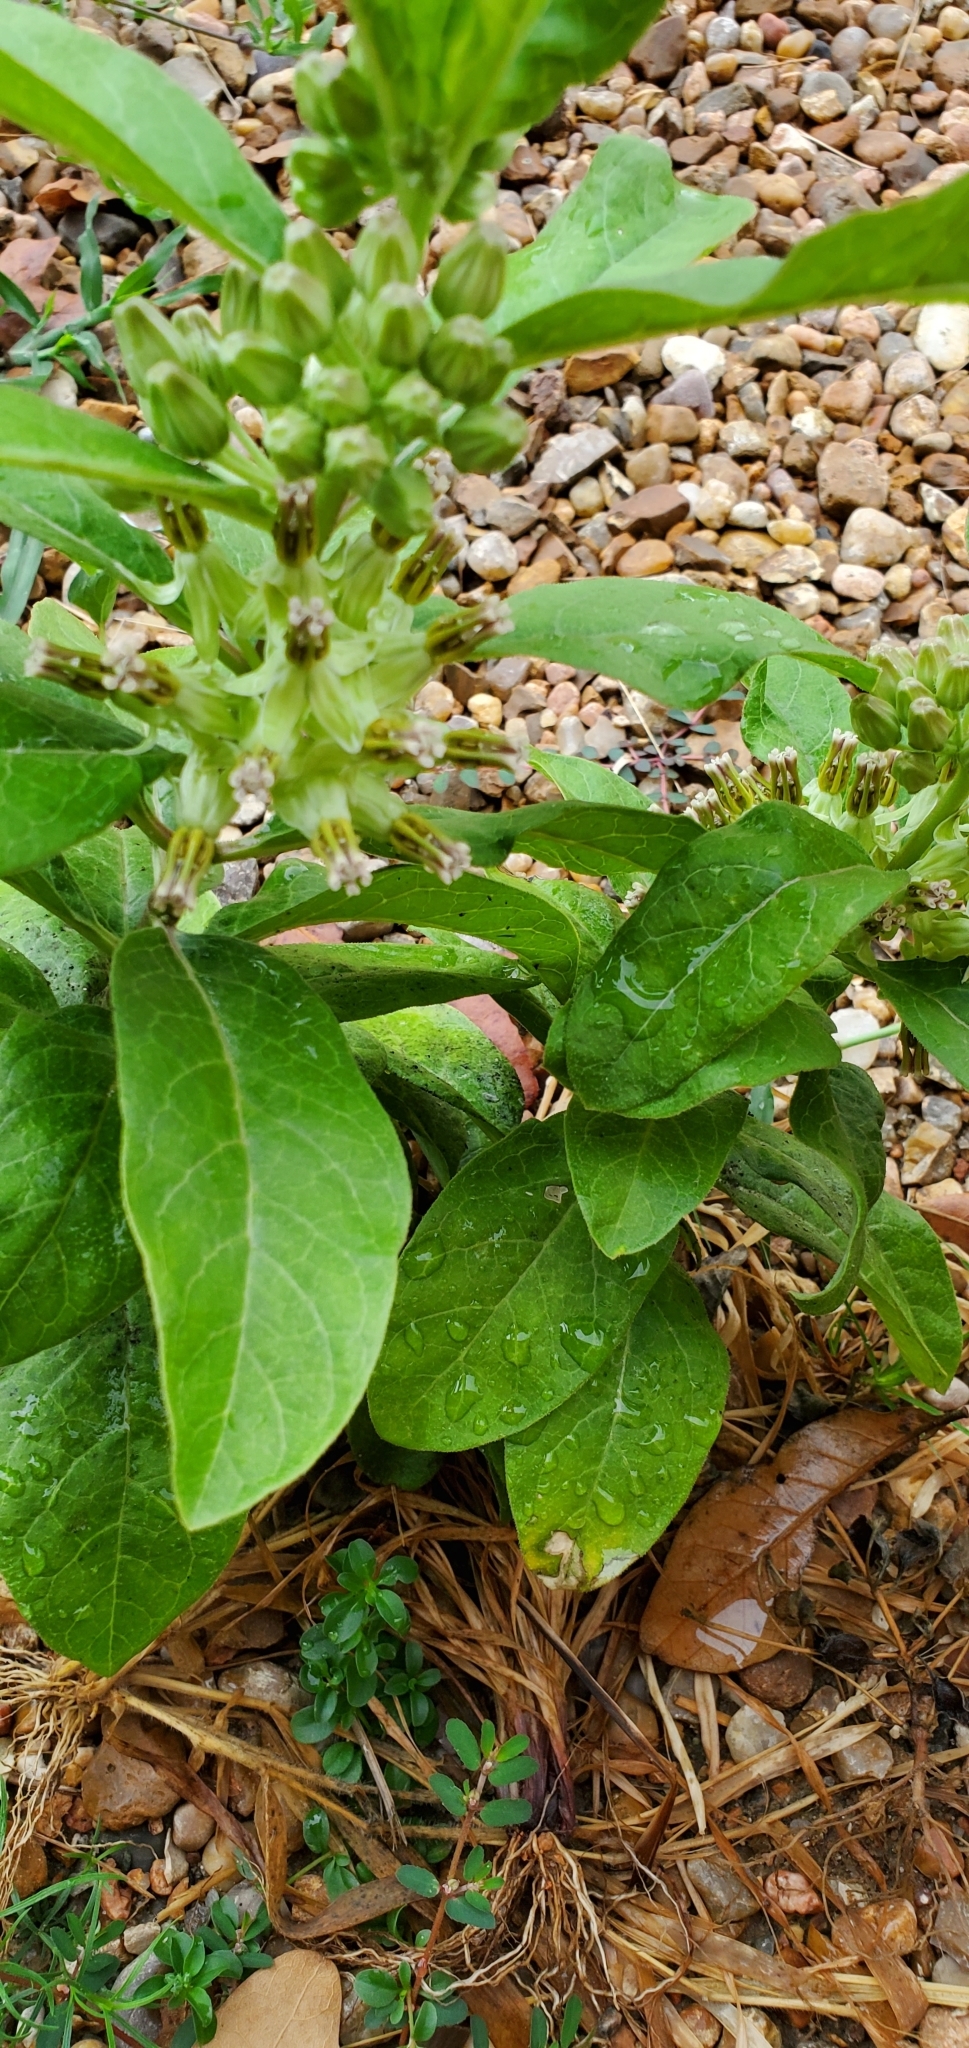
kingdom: Plantae
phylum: Tracheophyta
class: Magnoliopsida
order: Gentianales
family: Apocynaceae
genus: Asclepias
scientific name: Asclepias oenotheroides
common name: Zizotes milkweed
